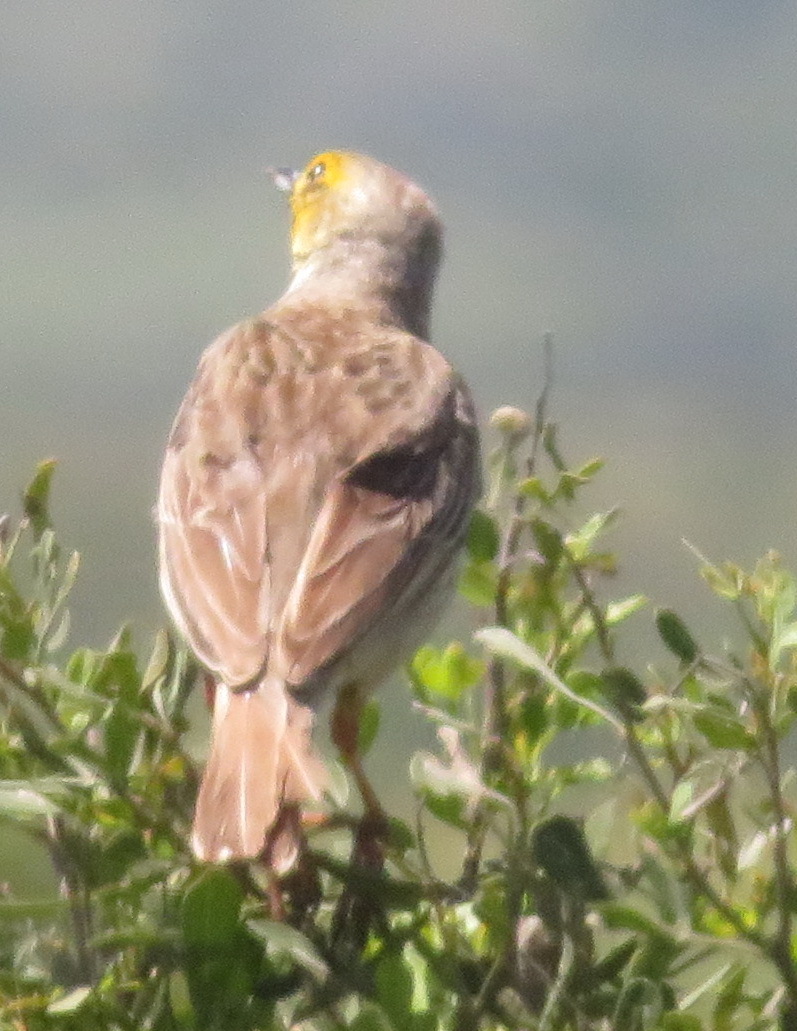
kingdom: Animalia
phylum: Chordata
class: Aves
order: Passeriformes
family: Motacillidae
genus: Macronyx
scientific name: Macronyx capensis
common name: Cape longclaw
